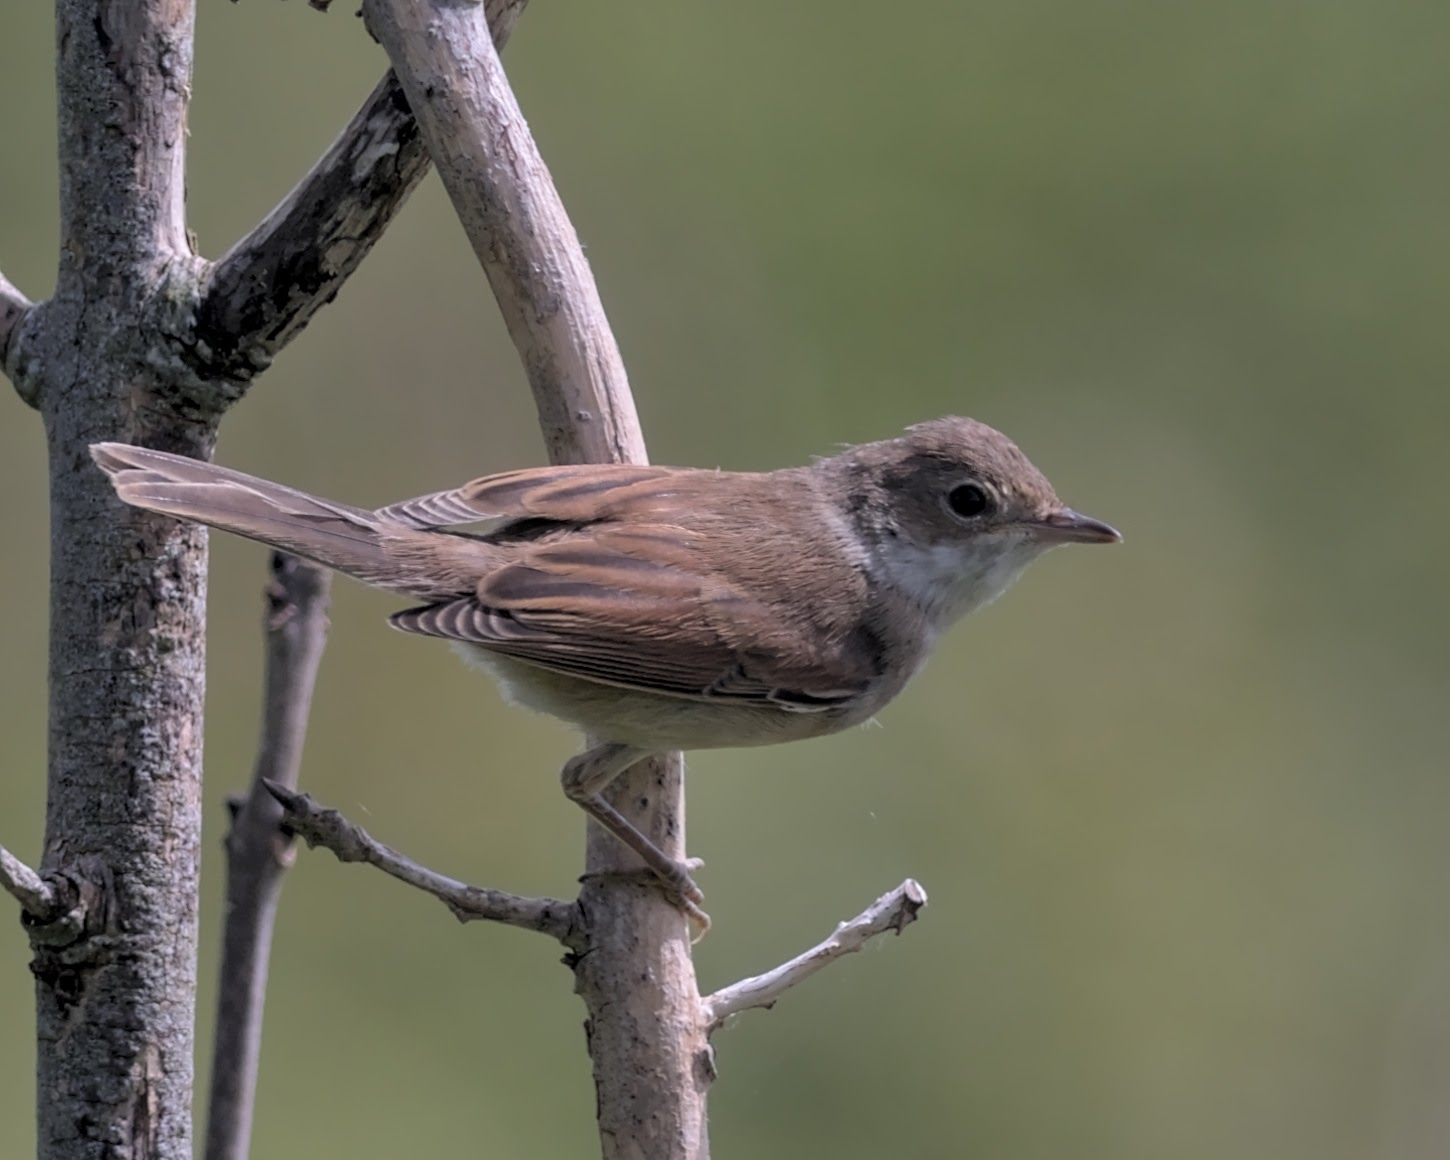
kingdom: Animalia
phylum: Chordata
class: Aves
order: Passeriformes
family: Sylviidae
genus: Sylvia
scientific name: Sylvia communis
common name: Common whitethroat
